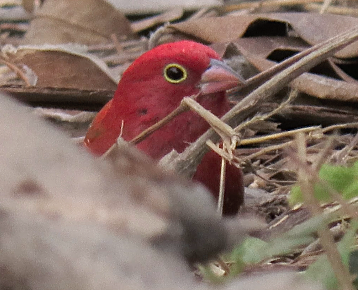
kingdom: Animalia
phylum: Chordata
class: Aves
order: Passeriformes
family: Estrildidae
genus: Lagonosticta
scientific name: Lagonosticta senegala
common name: Red-billed firefinch
